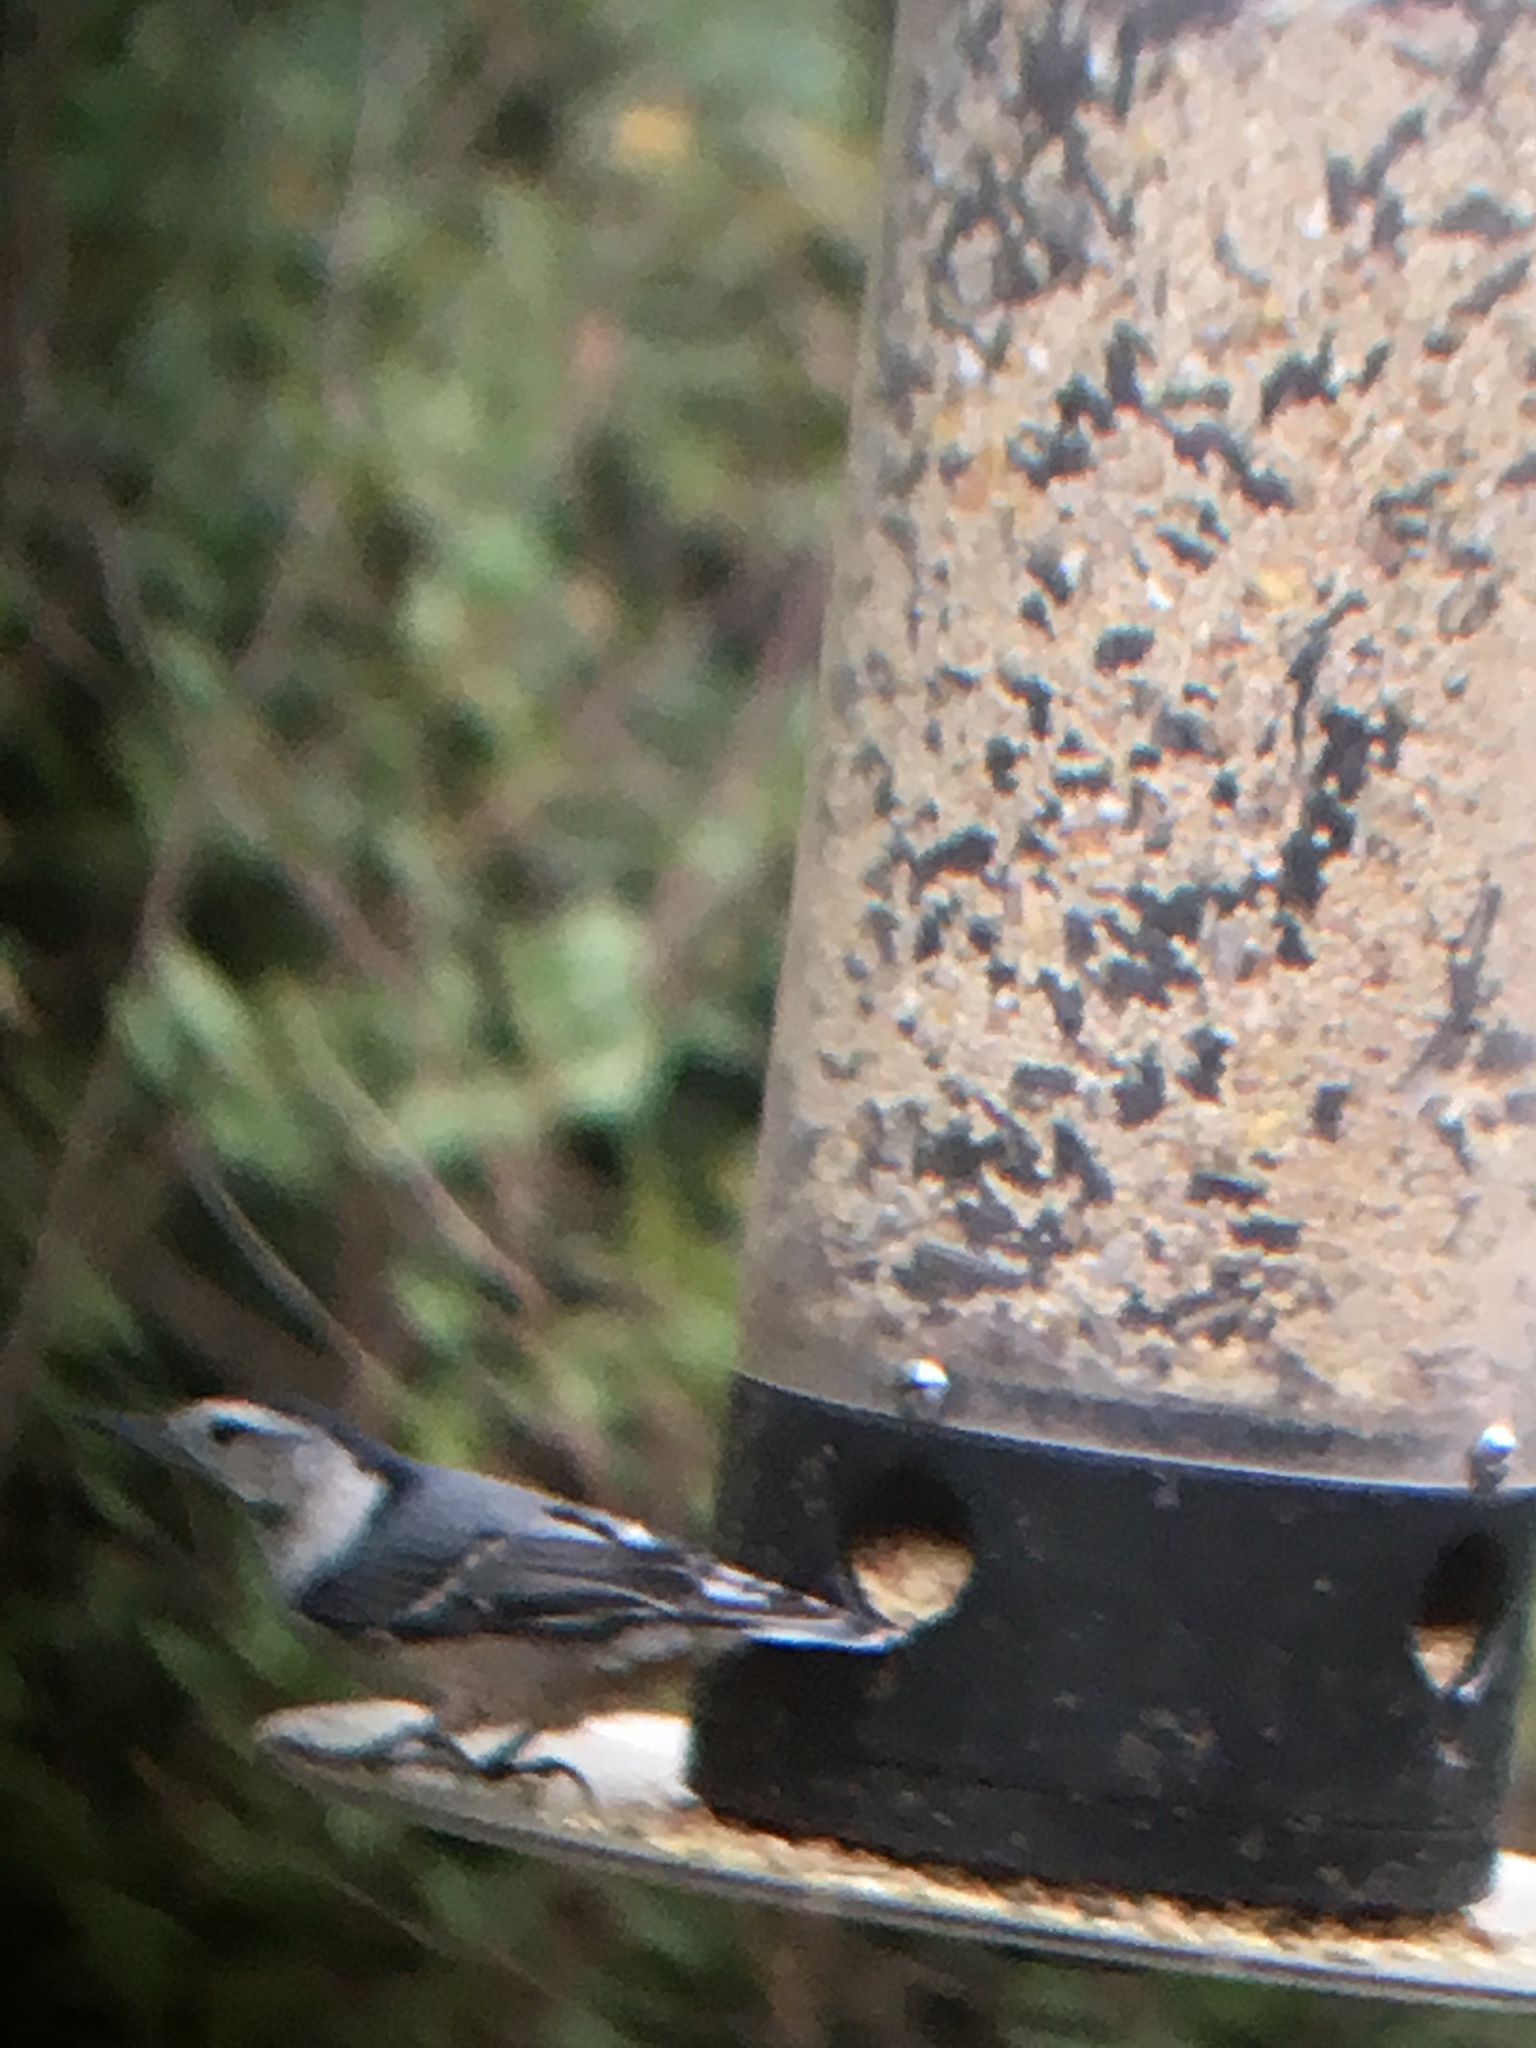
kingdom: Animalia
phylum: Chordata
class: Aves
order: Passeriformes
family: Sittidae
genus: Sitta
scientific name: Sitta carolinensis
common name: White-breasted nuthatch
